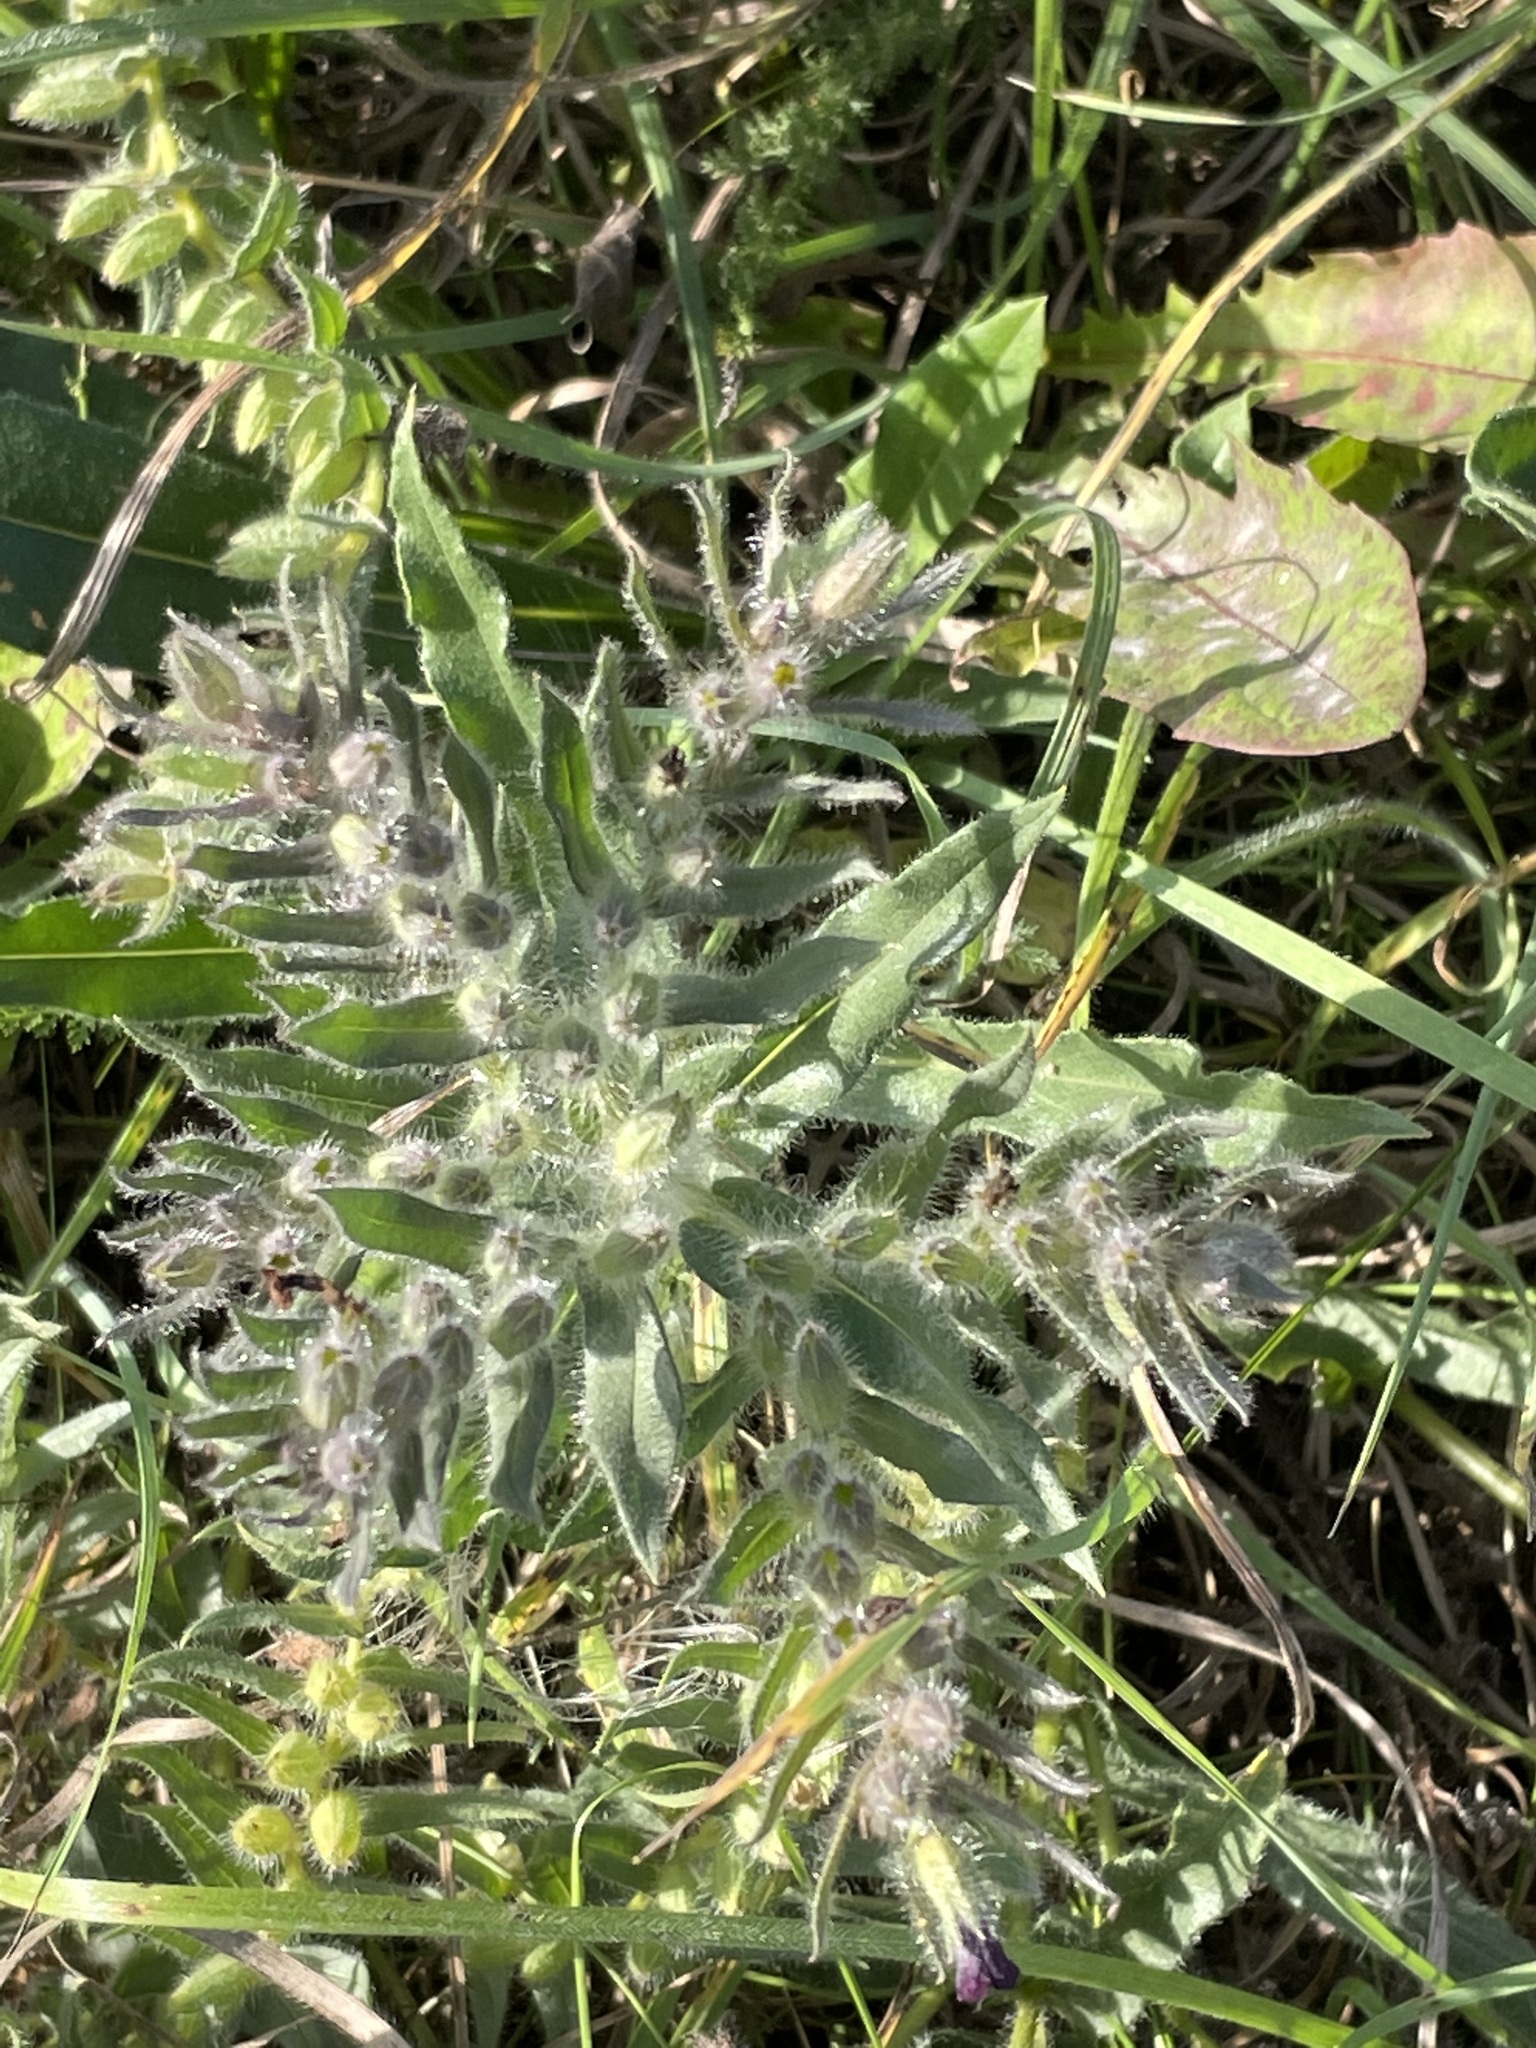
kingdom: Plantae
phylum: Tracheophyta
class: Magnoliopsida
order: Boraginales
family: Boraginaceae
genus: Nonea
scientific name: Nonea pulla
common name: Brown nonea
